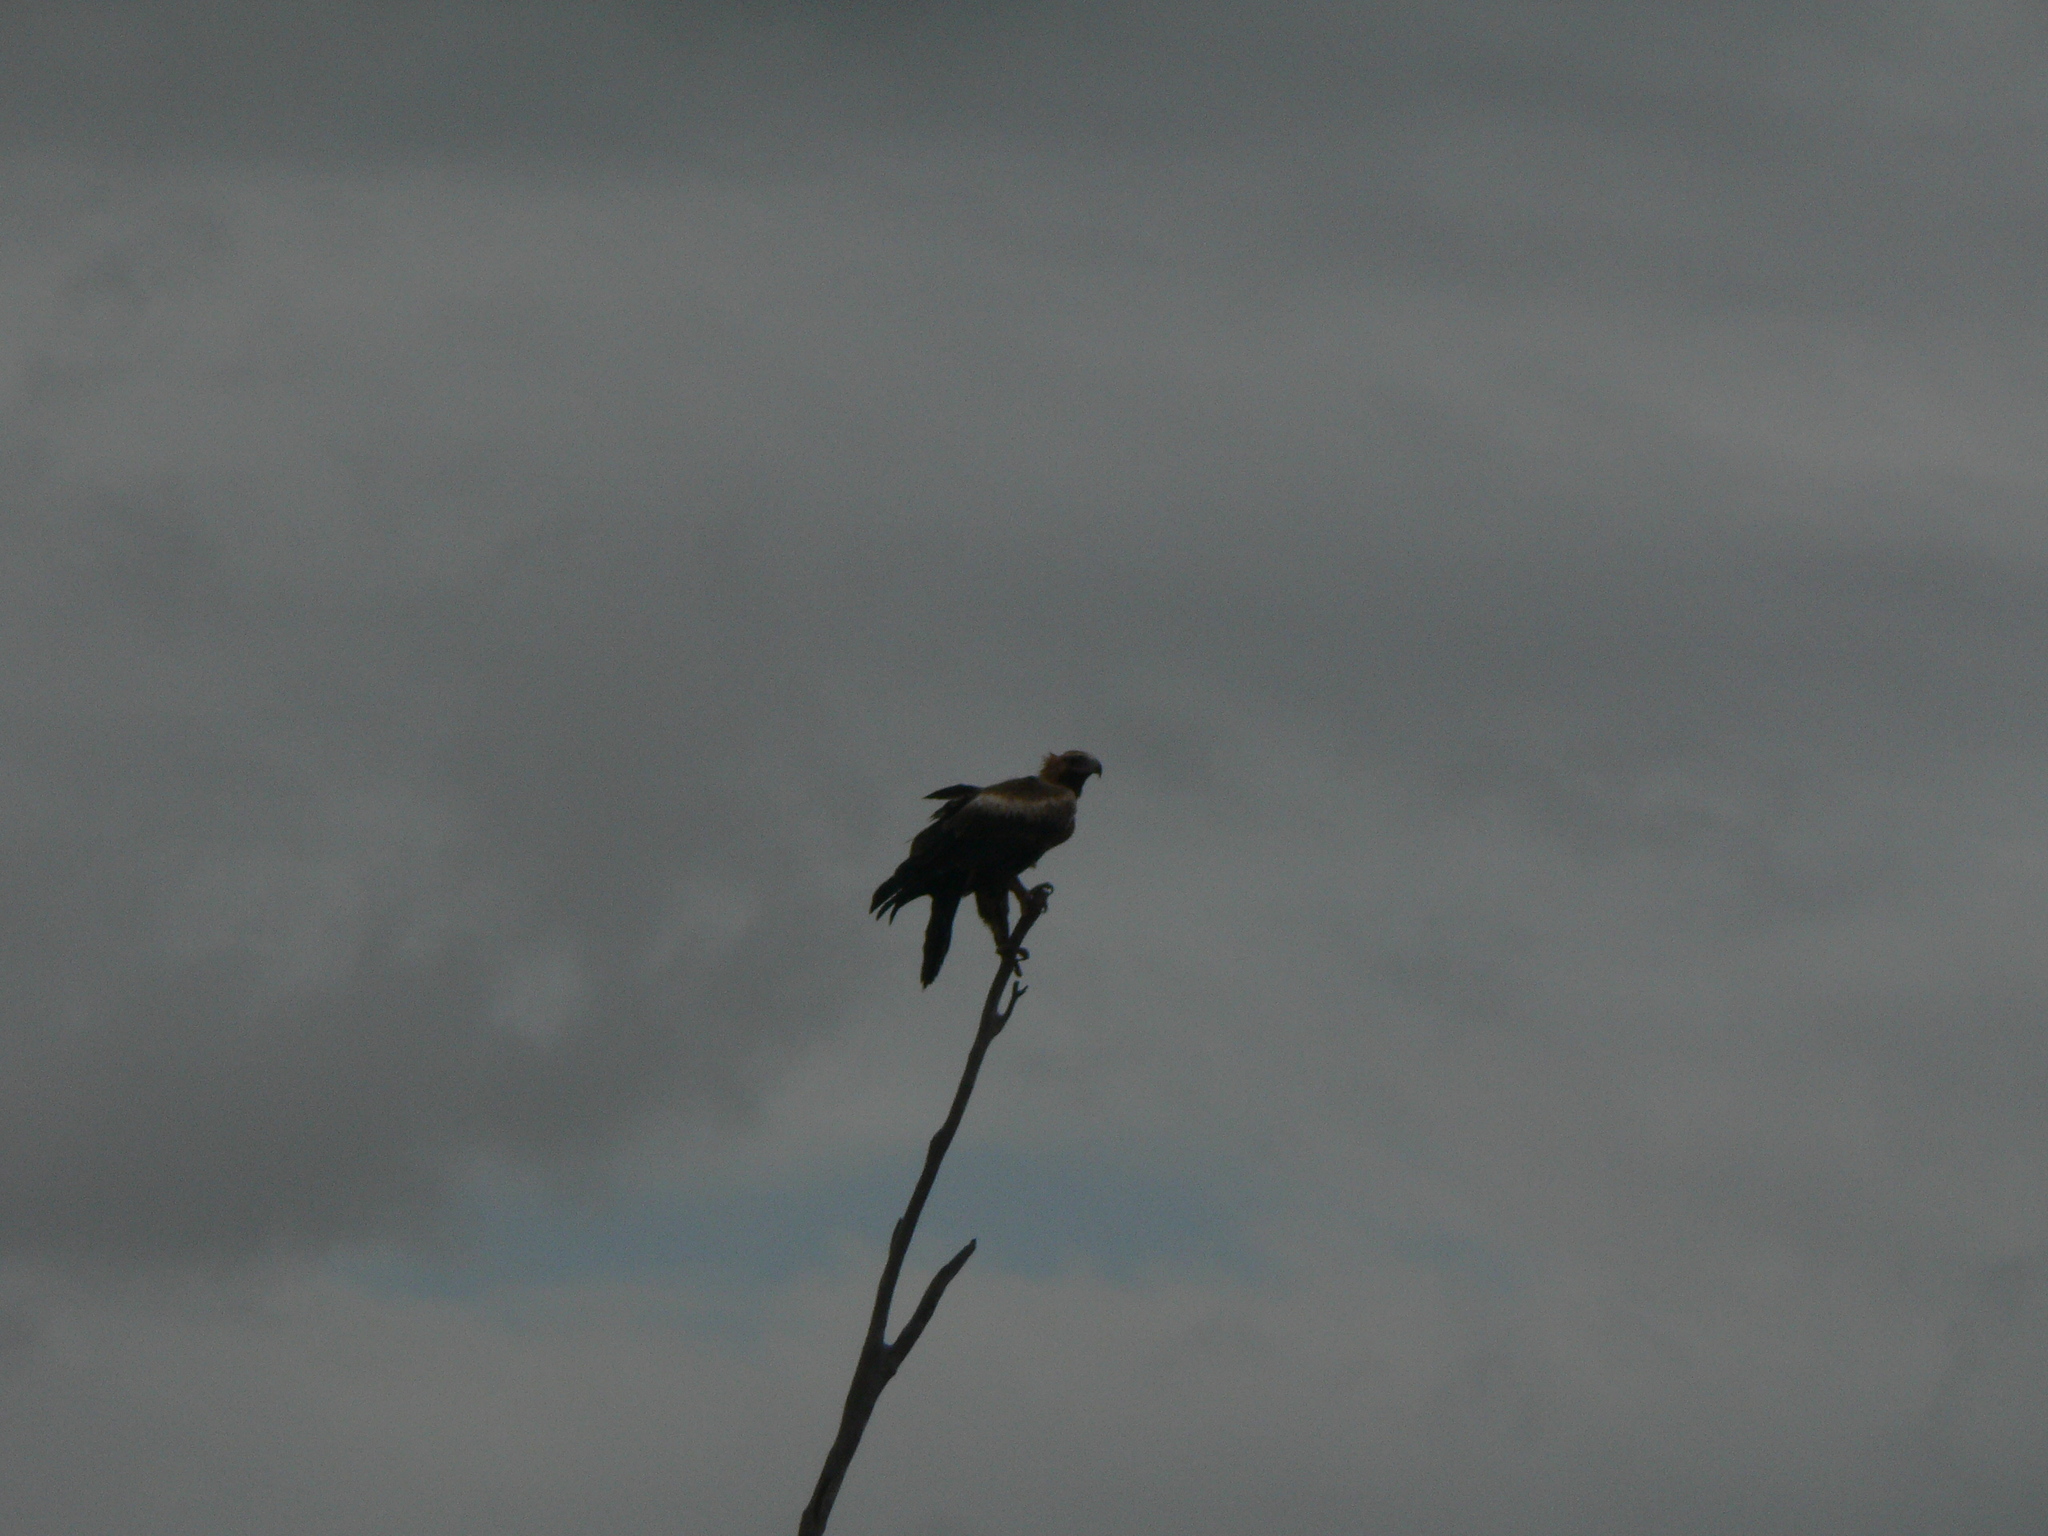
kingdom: Animalia
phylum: Chordata
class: Aves
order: Accipitriformes
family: Accipitridae
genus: Aquila
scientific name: Aquila audax
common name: Wedge-tailed eagle
